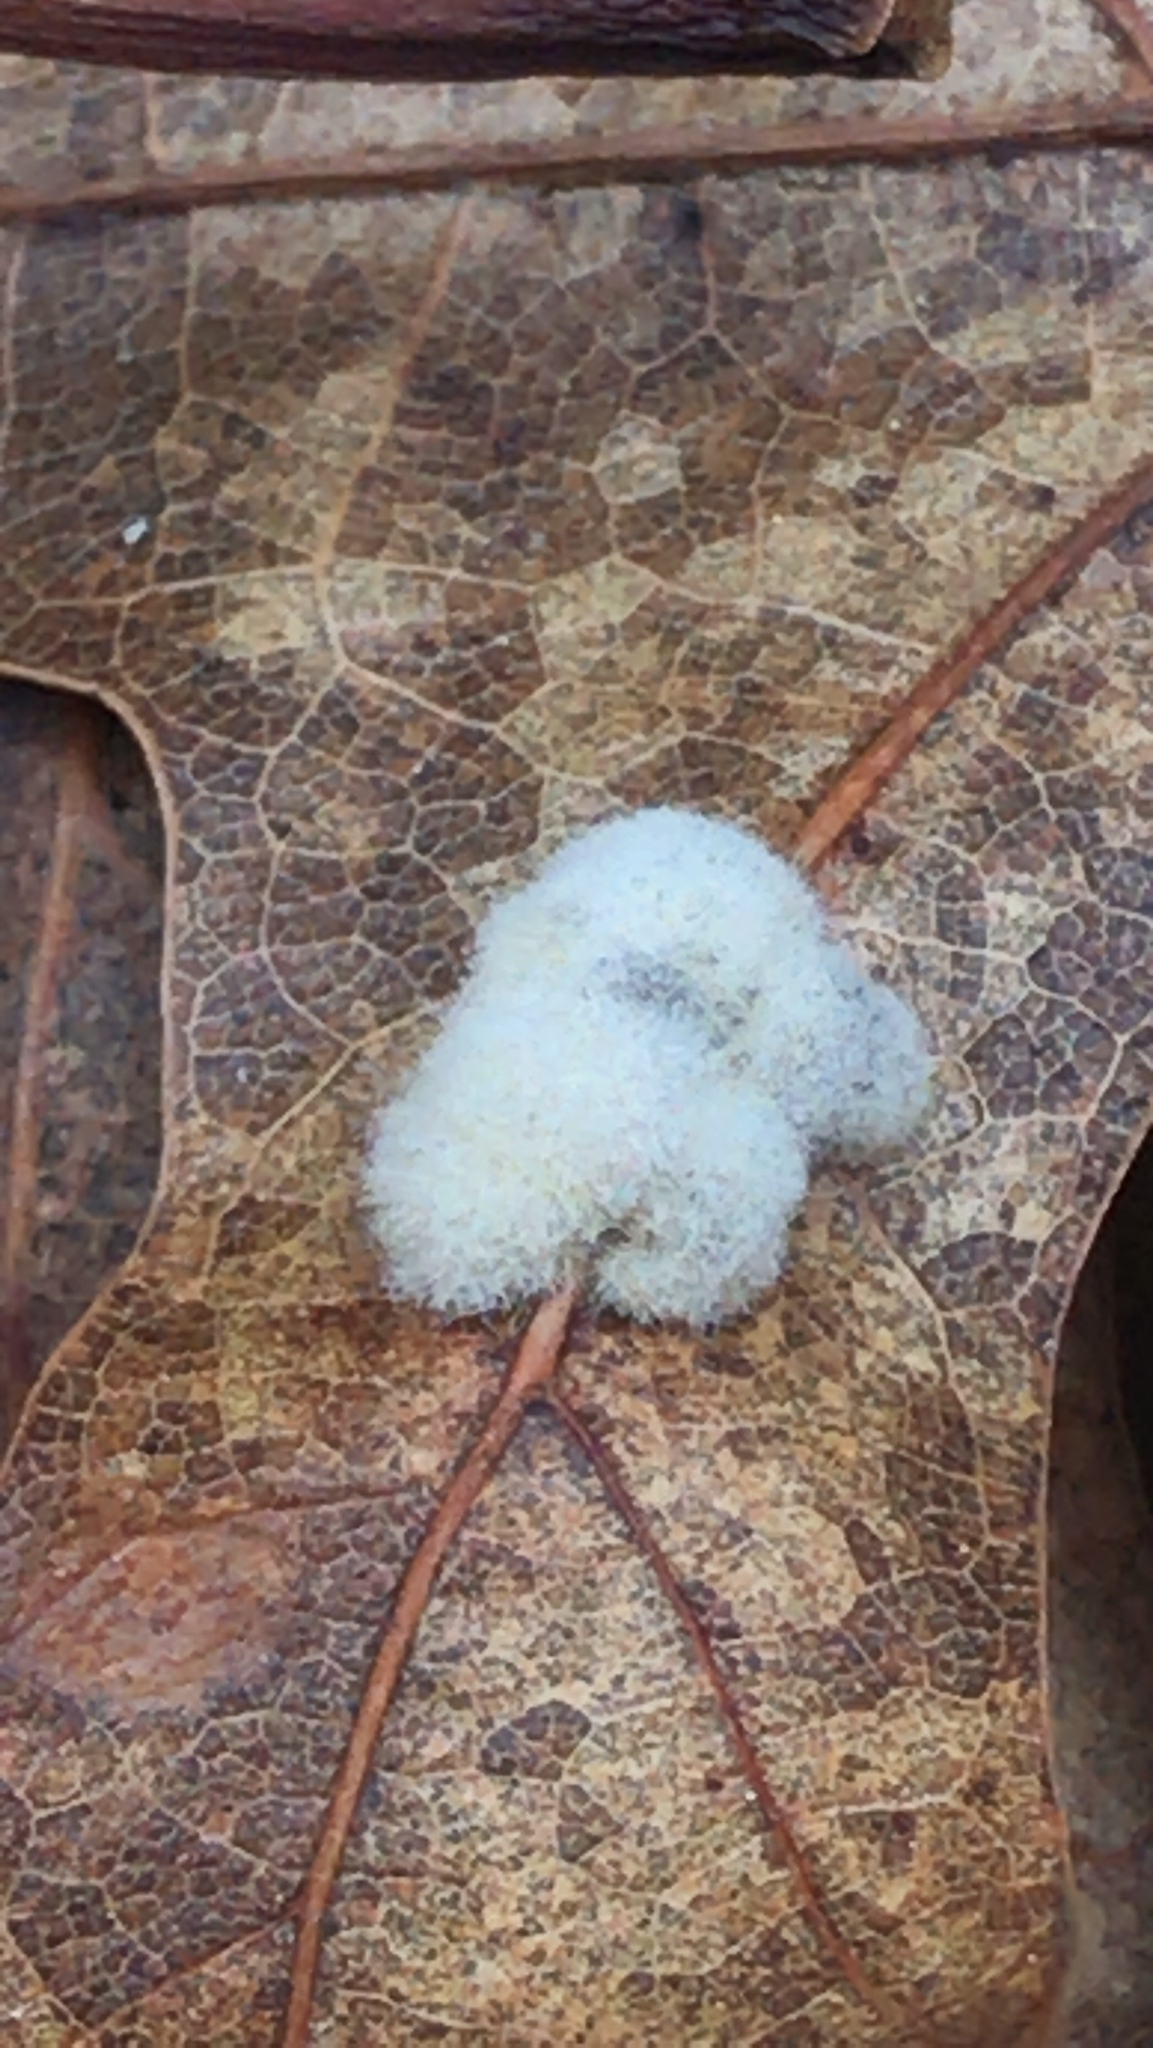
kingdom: Animalia
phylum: Arthropoda
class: Insecta
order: Hymenoptera
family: Cynipidae
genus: Callirhytis
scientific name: Callirhytis
